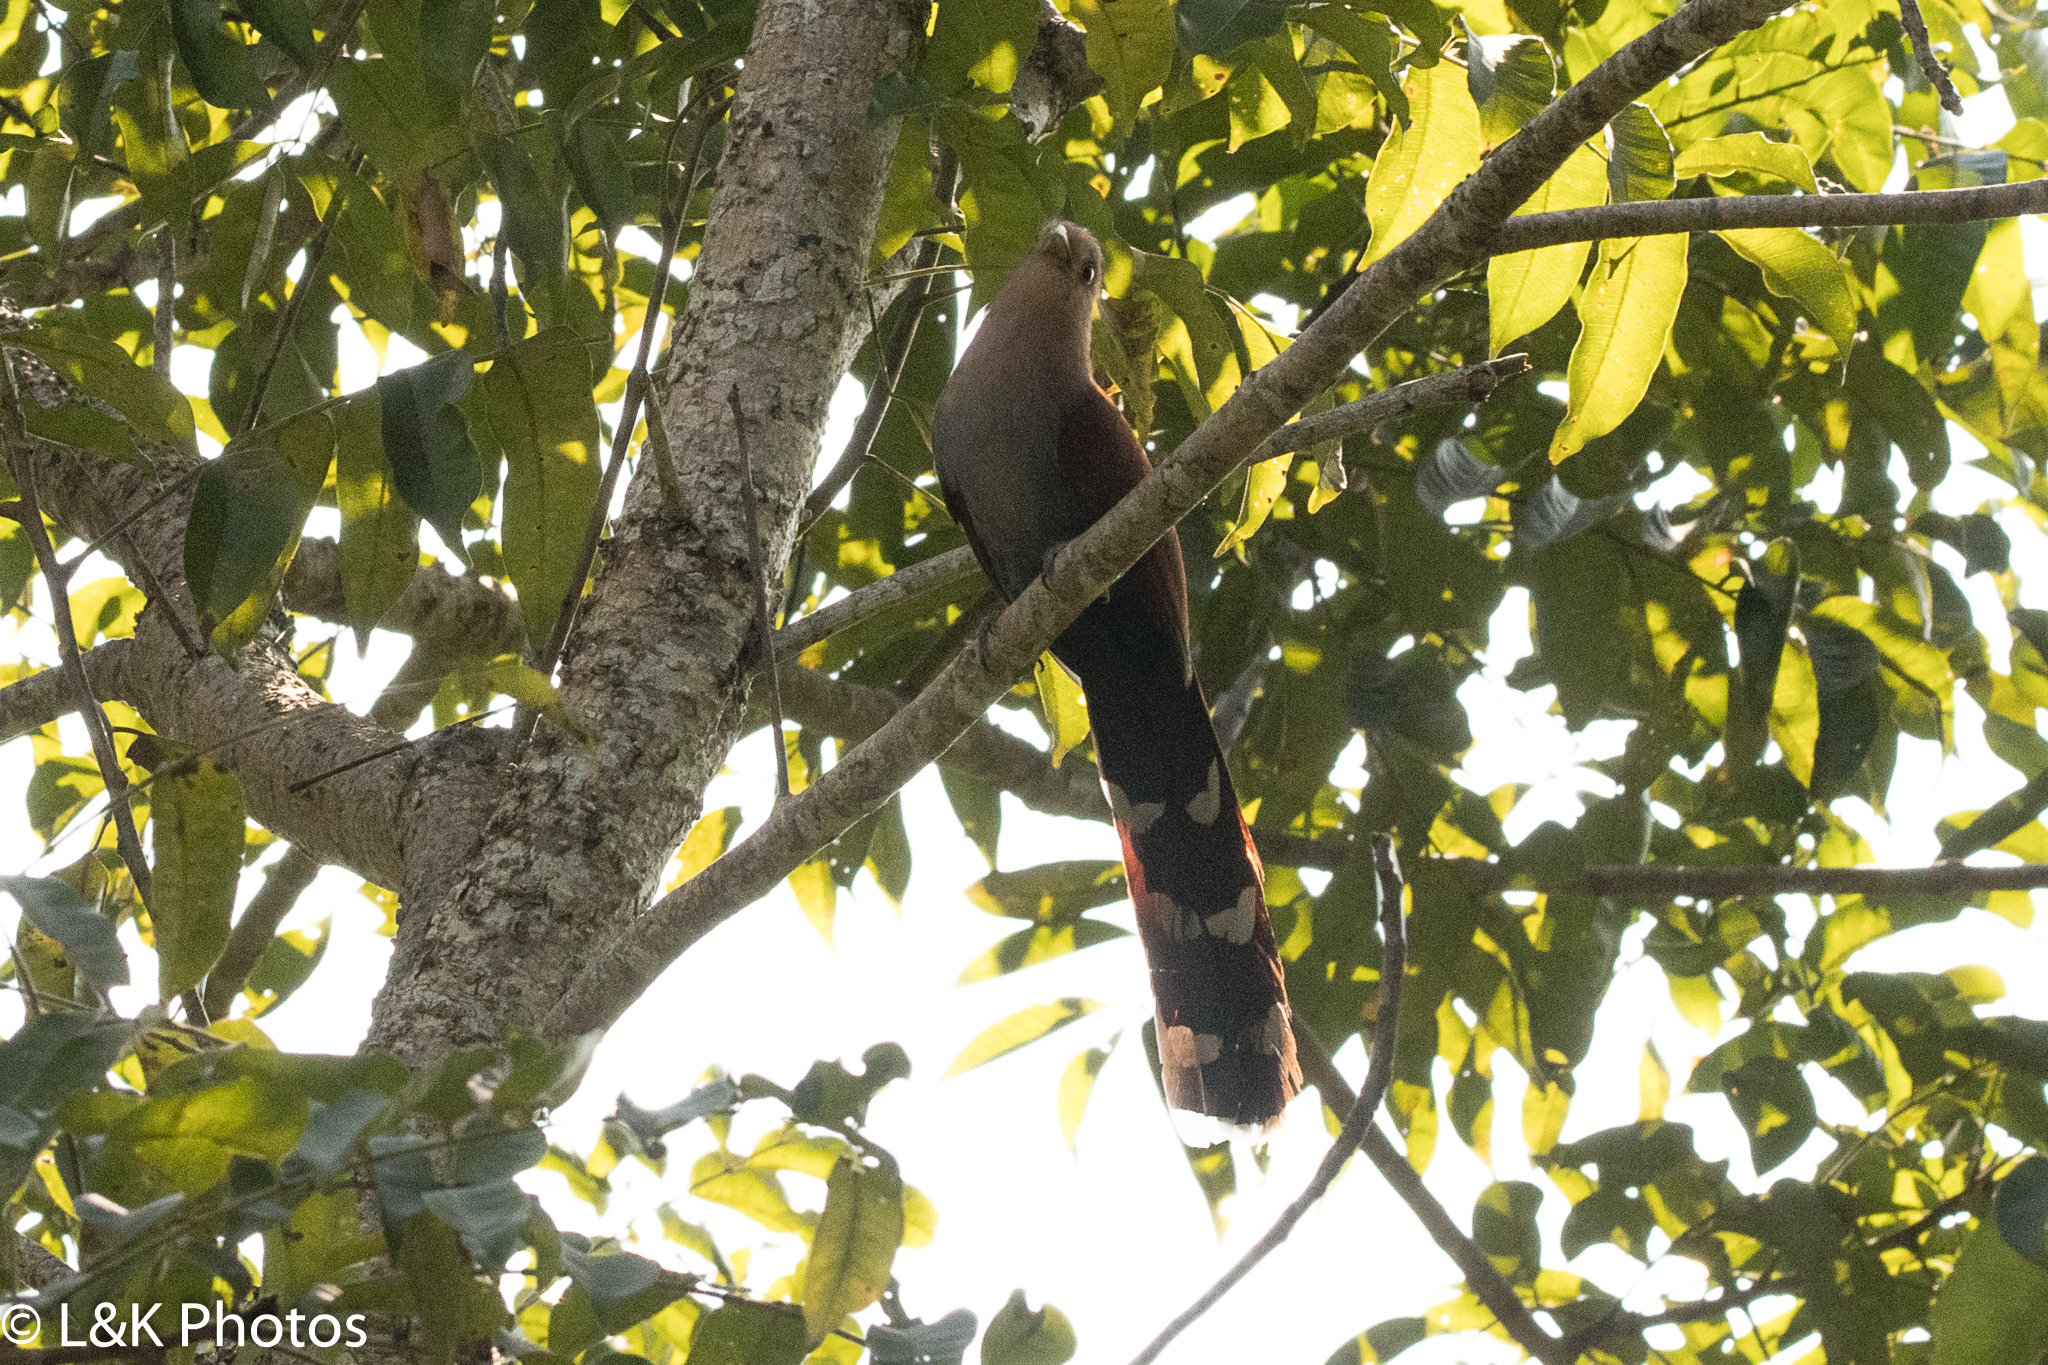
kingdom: Animalia
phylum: Chordata
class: Aves
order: Cuculiformes
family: Cuculidae
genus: Piaya
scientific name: Piaya cayana
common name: Squirrel cuckoo
